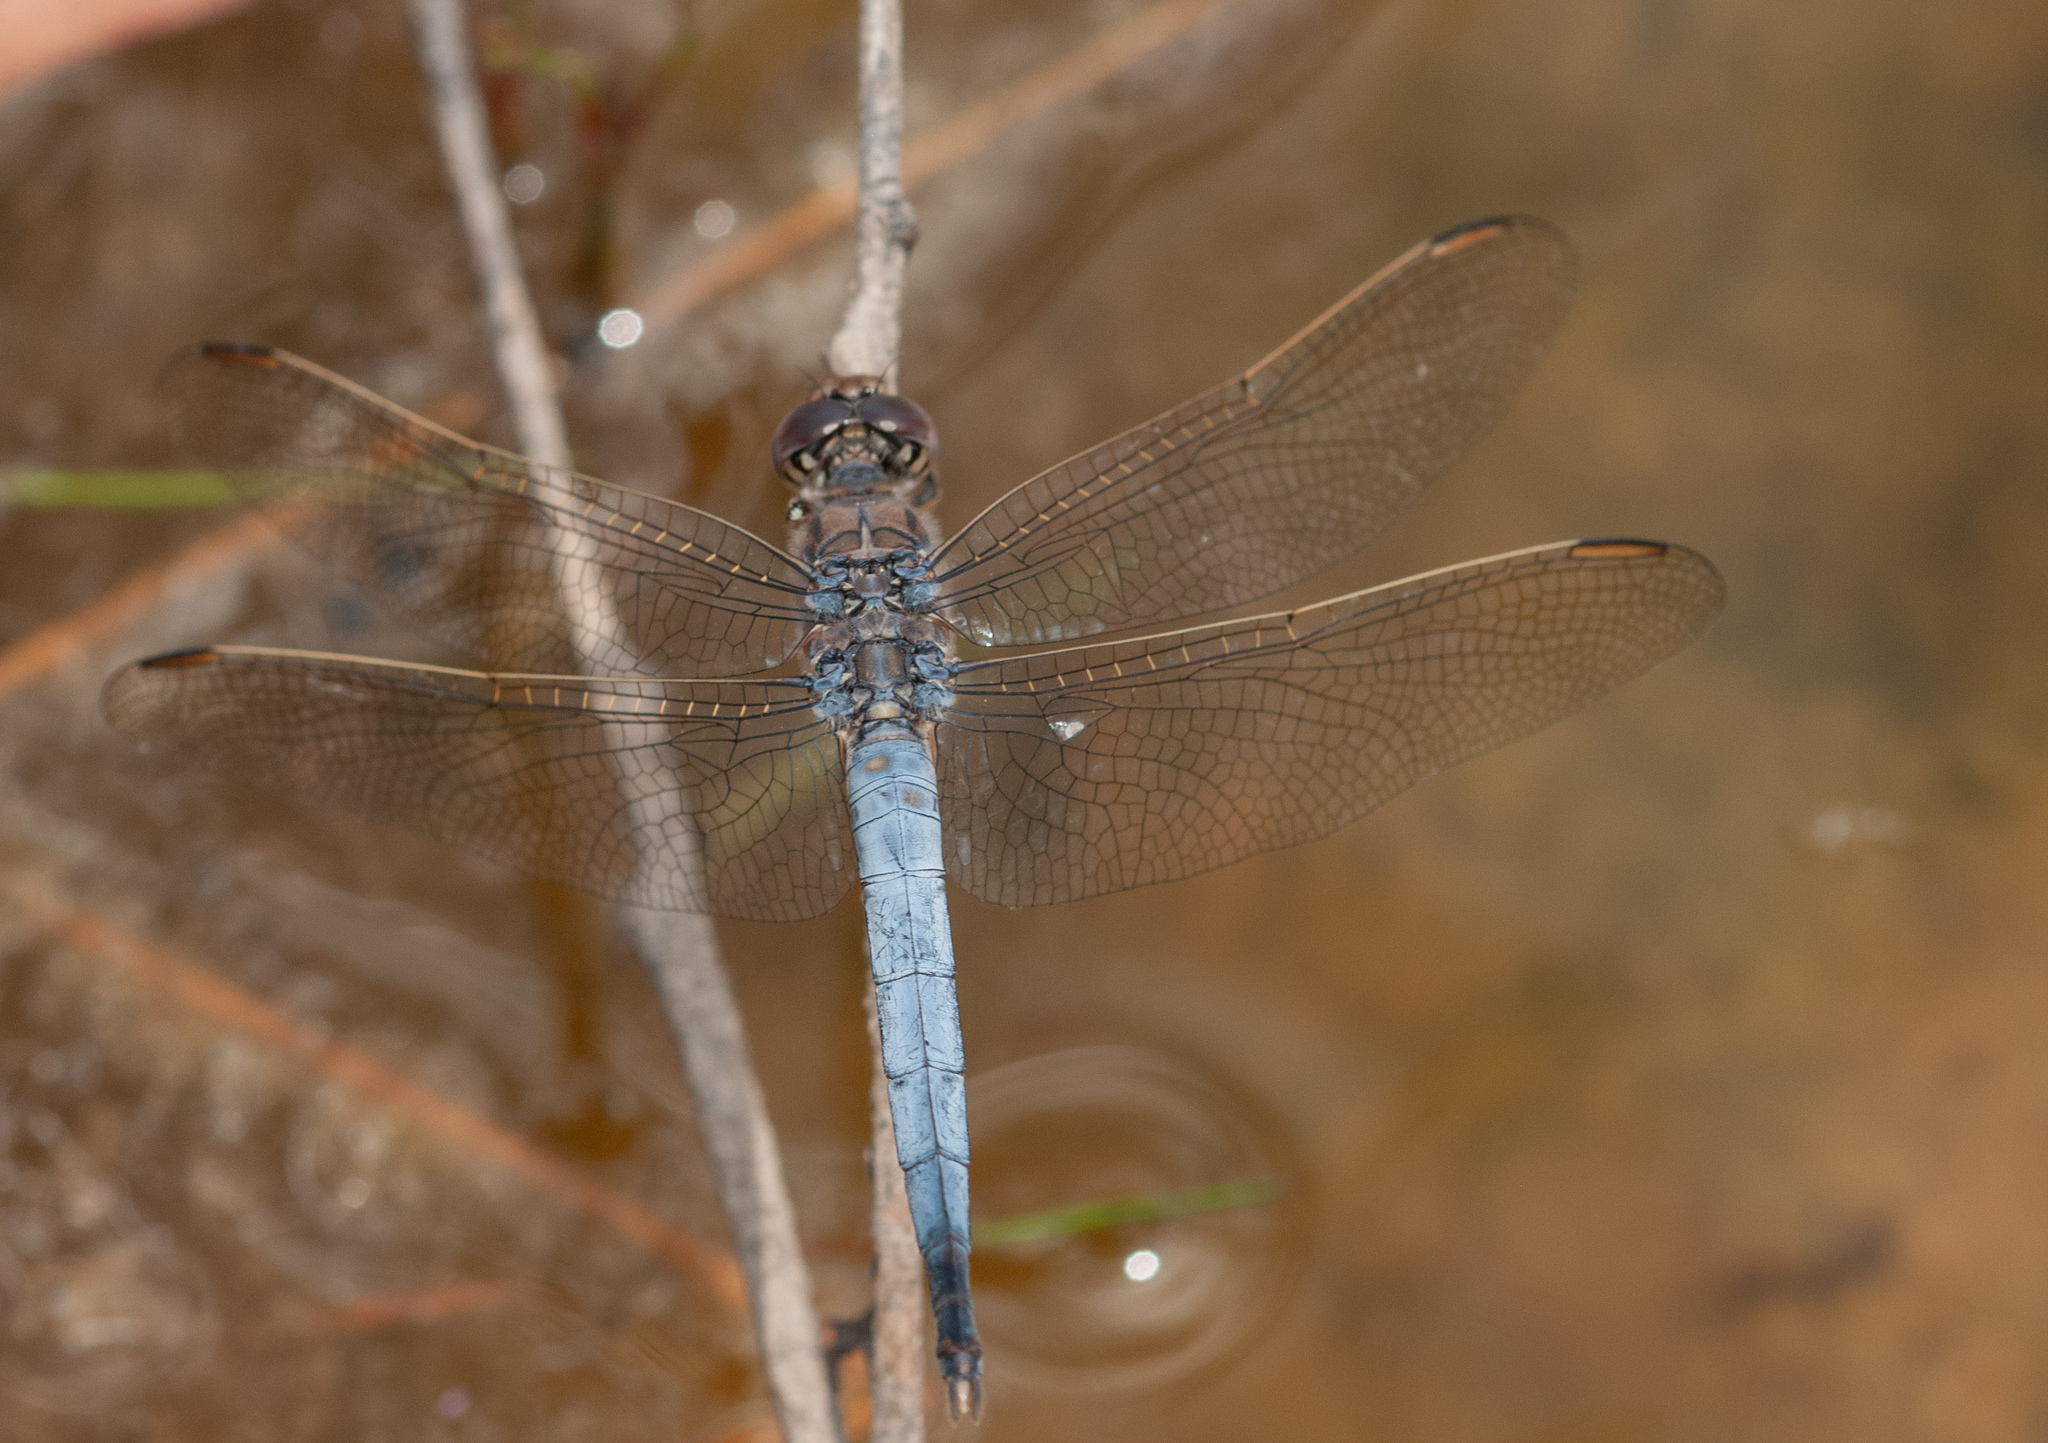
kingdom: Animalia
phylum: Arthropoda
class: Insecta
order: Odonata
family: Libellulidae
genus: Orthetrum
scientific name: Orthetrum caledonicum
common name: Blue skimmer
